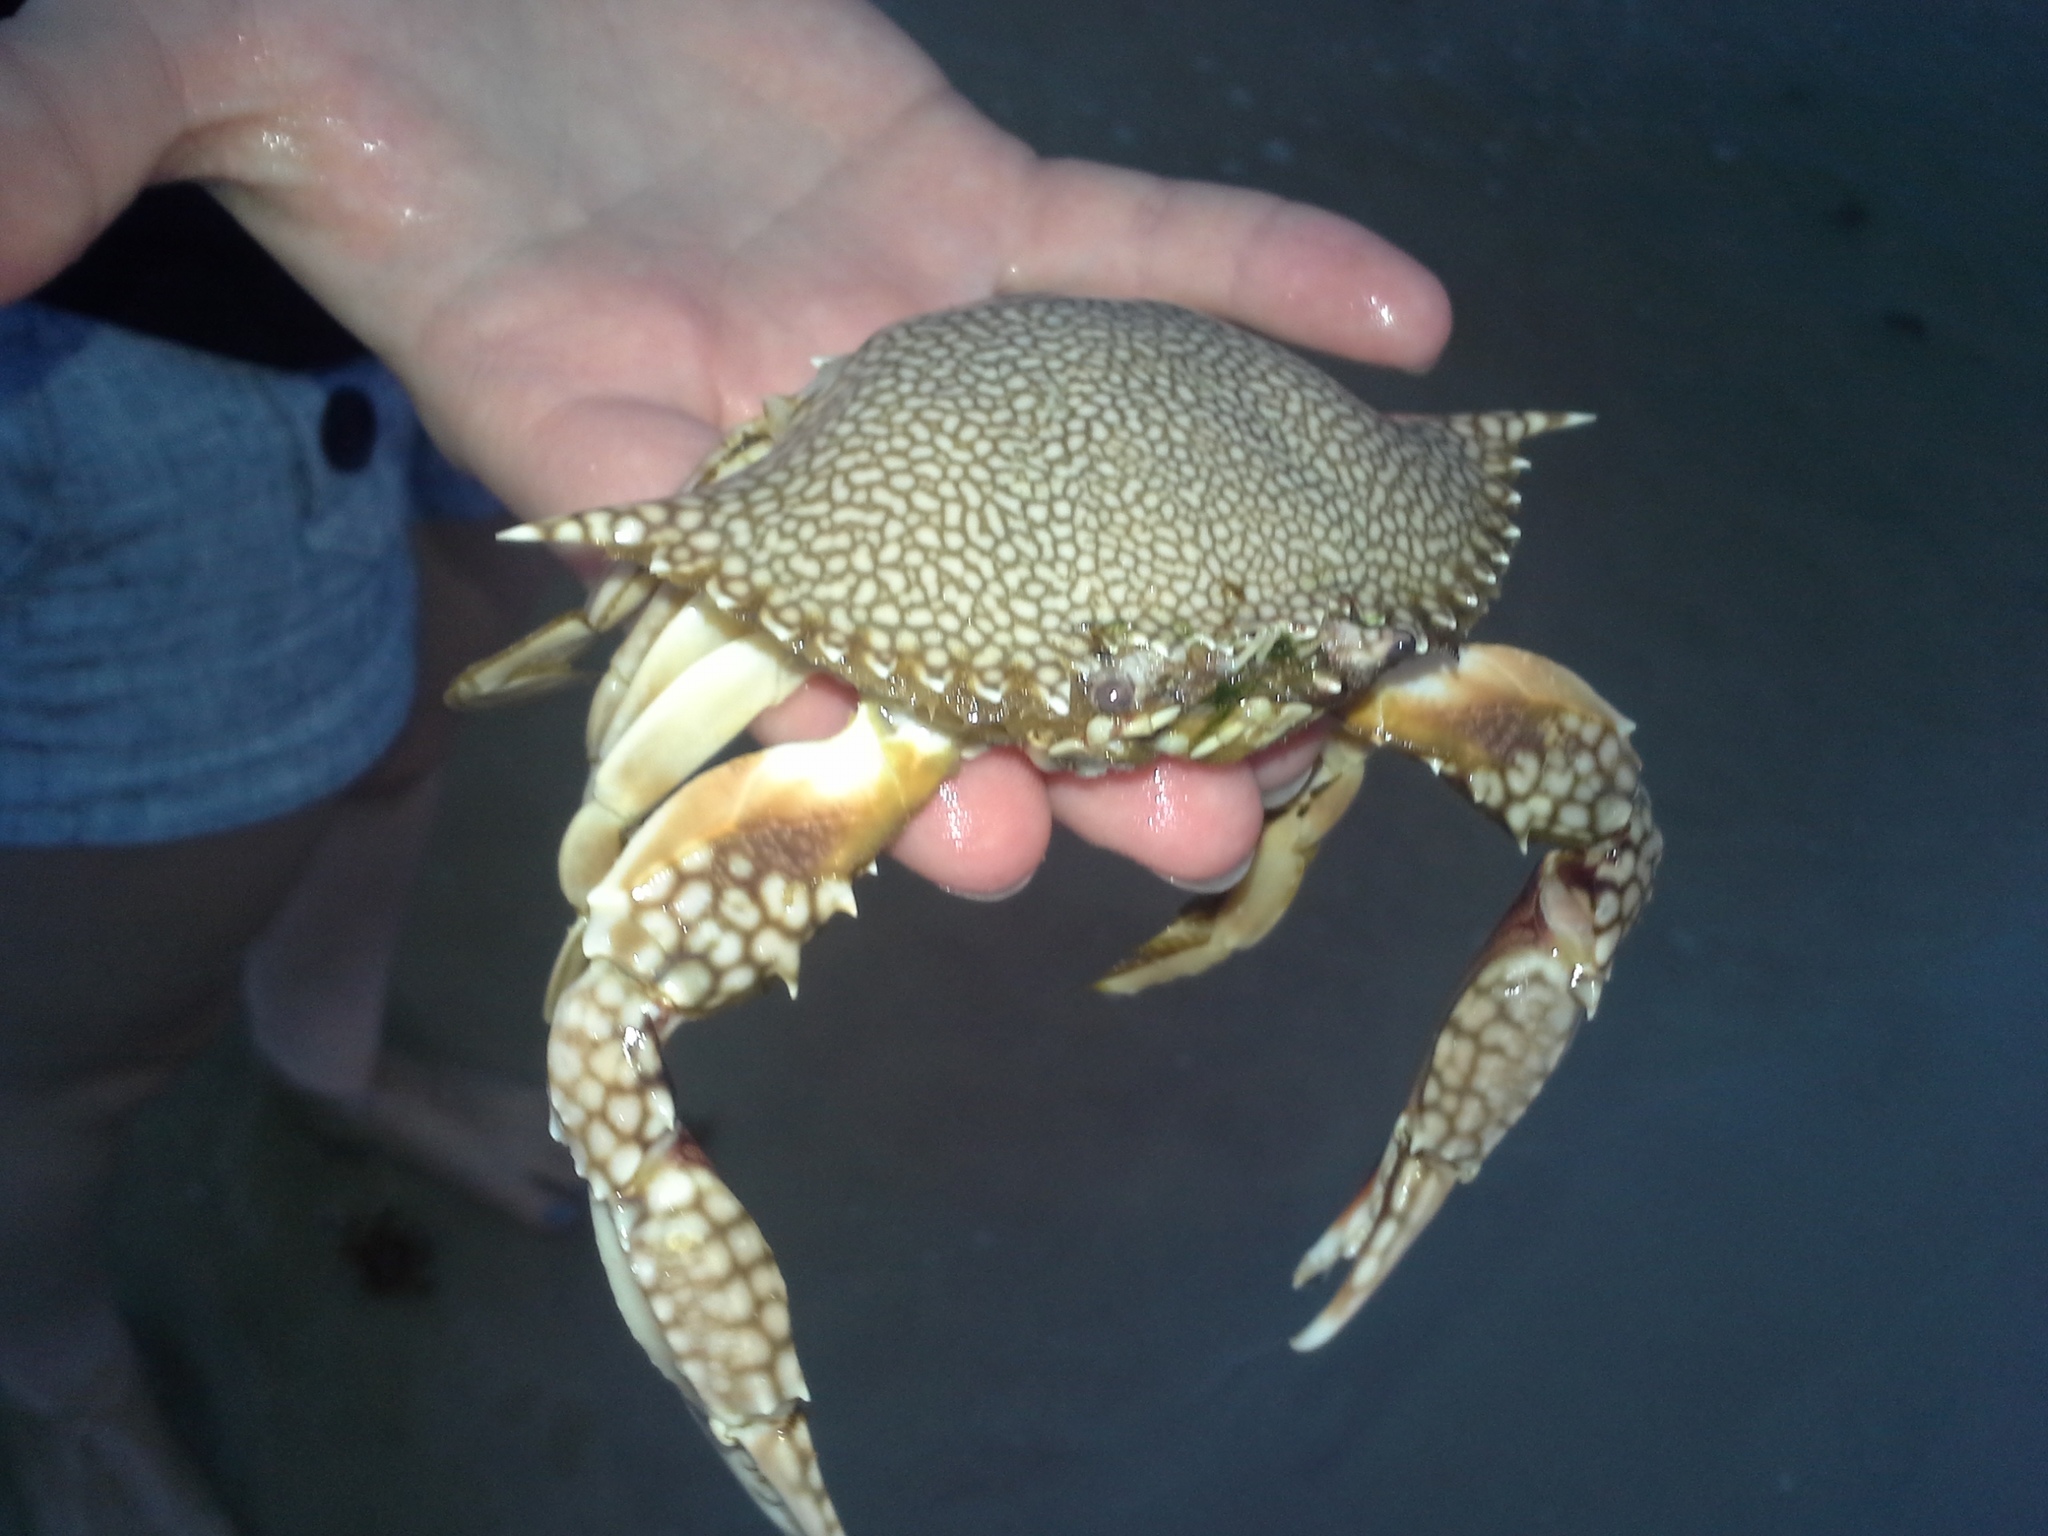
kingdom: Animalia
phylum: Arthropoda
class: Malacostraca
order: Decapoda
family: Portunidae
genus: Arenaeus
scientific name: Arenaeus cribrarius
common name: Speckled crab
